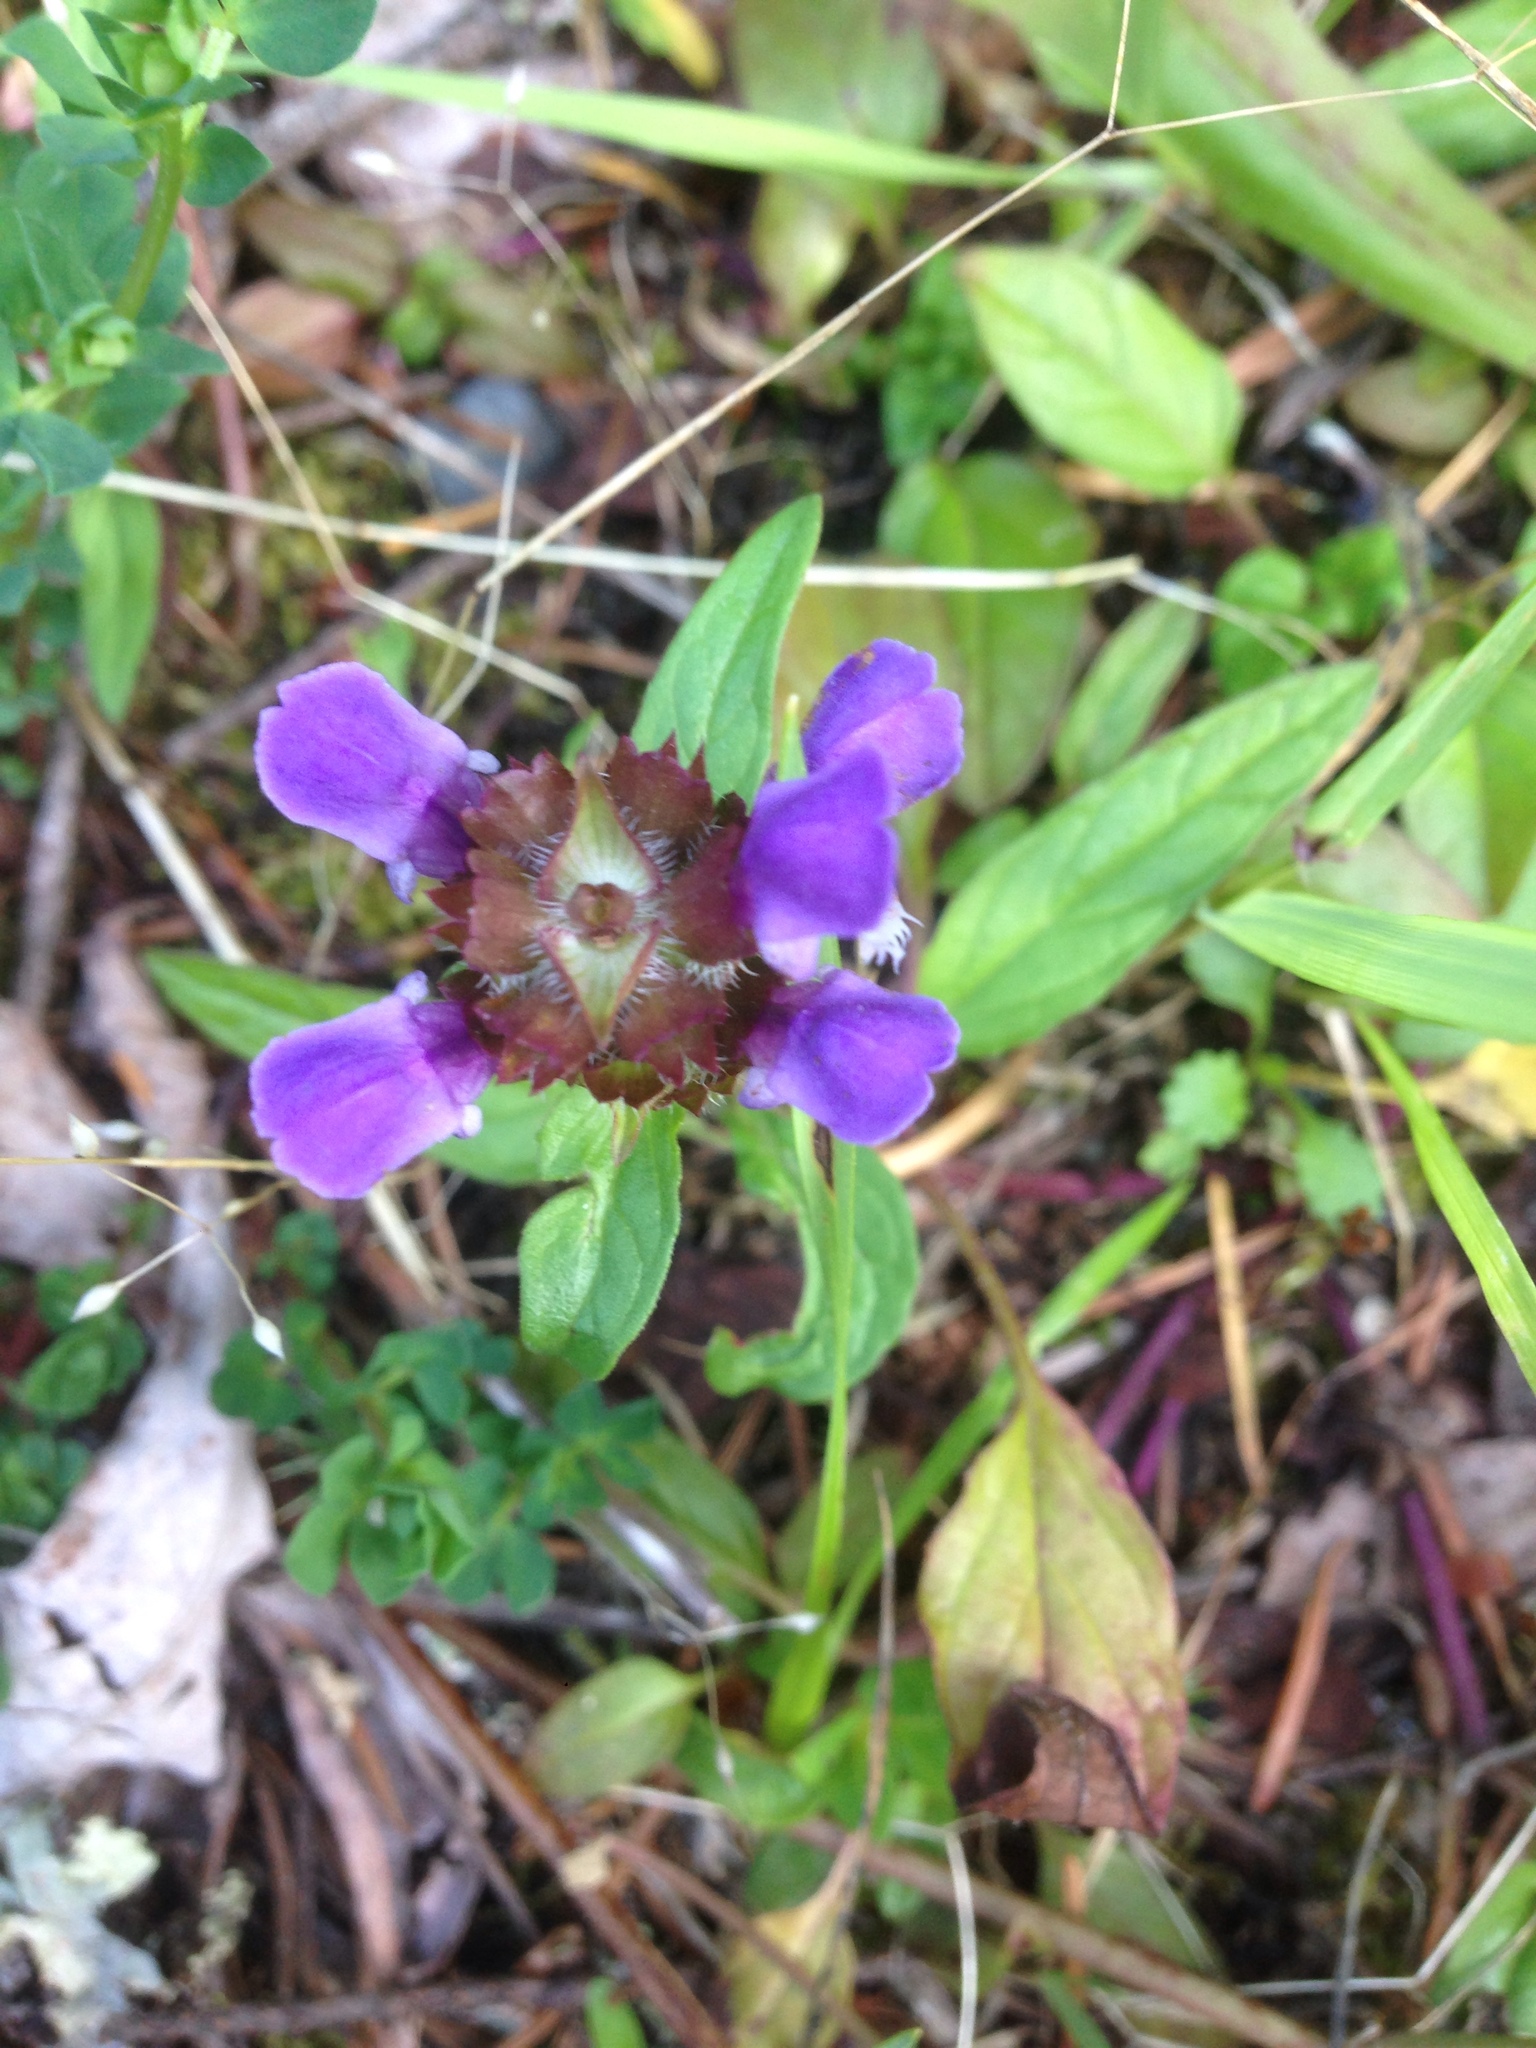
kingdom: Plantae
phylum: Tracheophyta
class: Magnoliopsida
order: Lamiales
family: Lamiaceae
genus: Prunella
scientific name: Prunella vulgaris
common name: Heal-all
